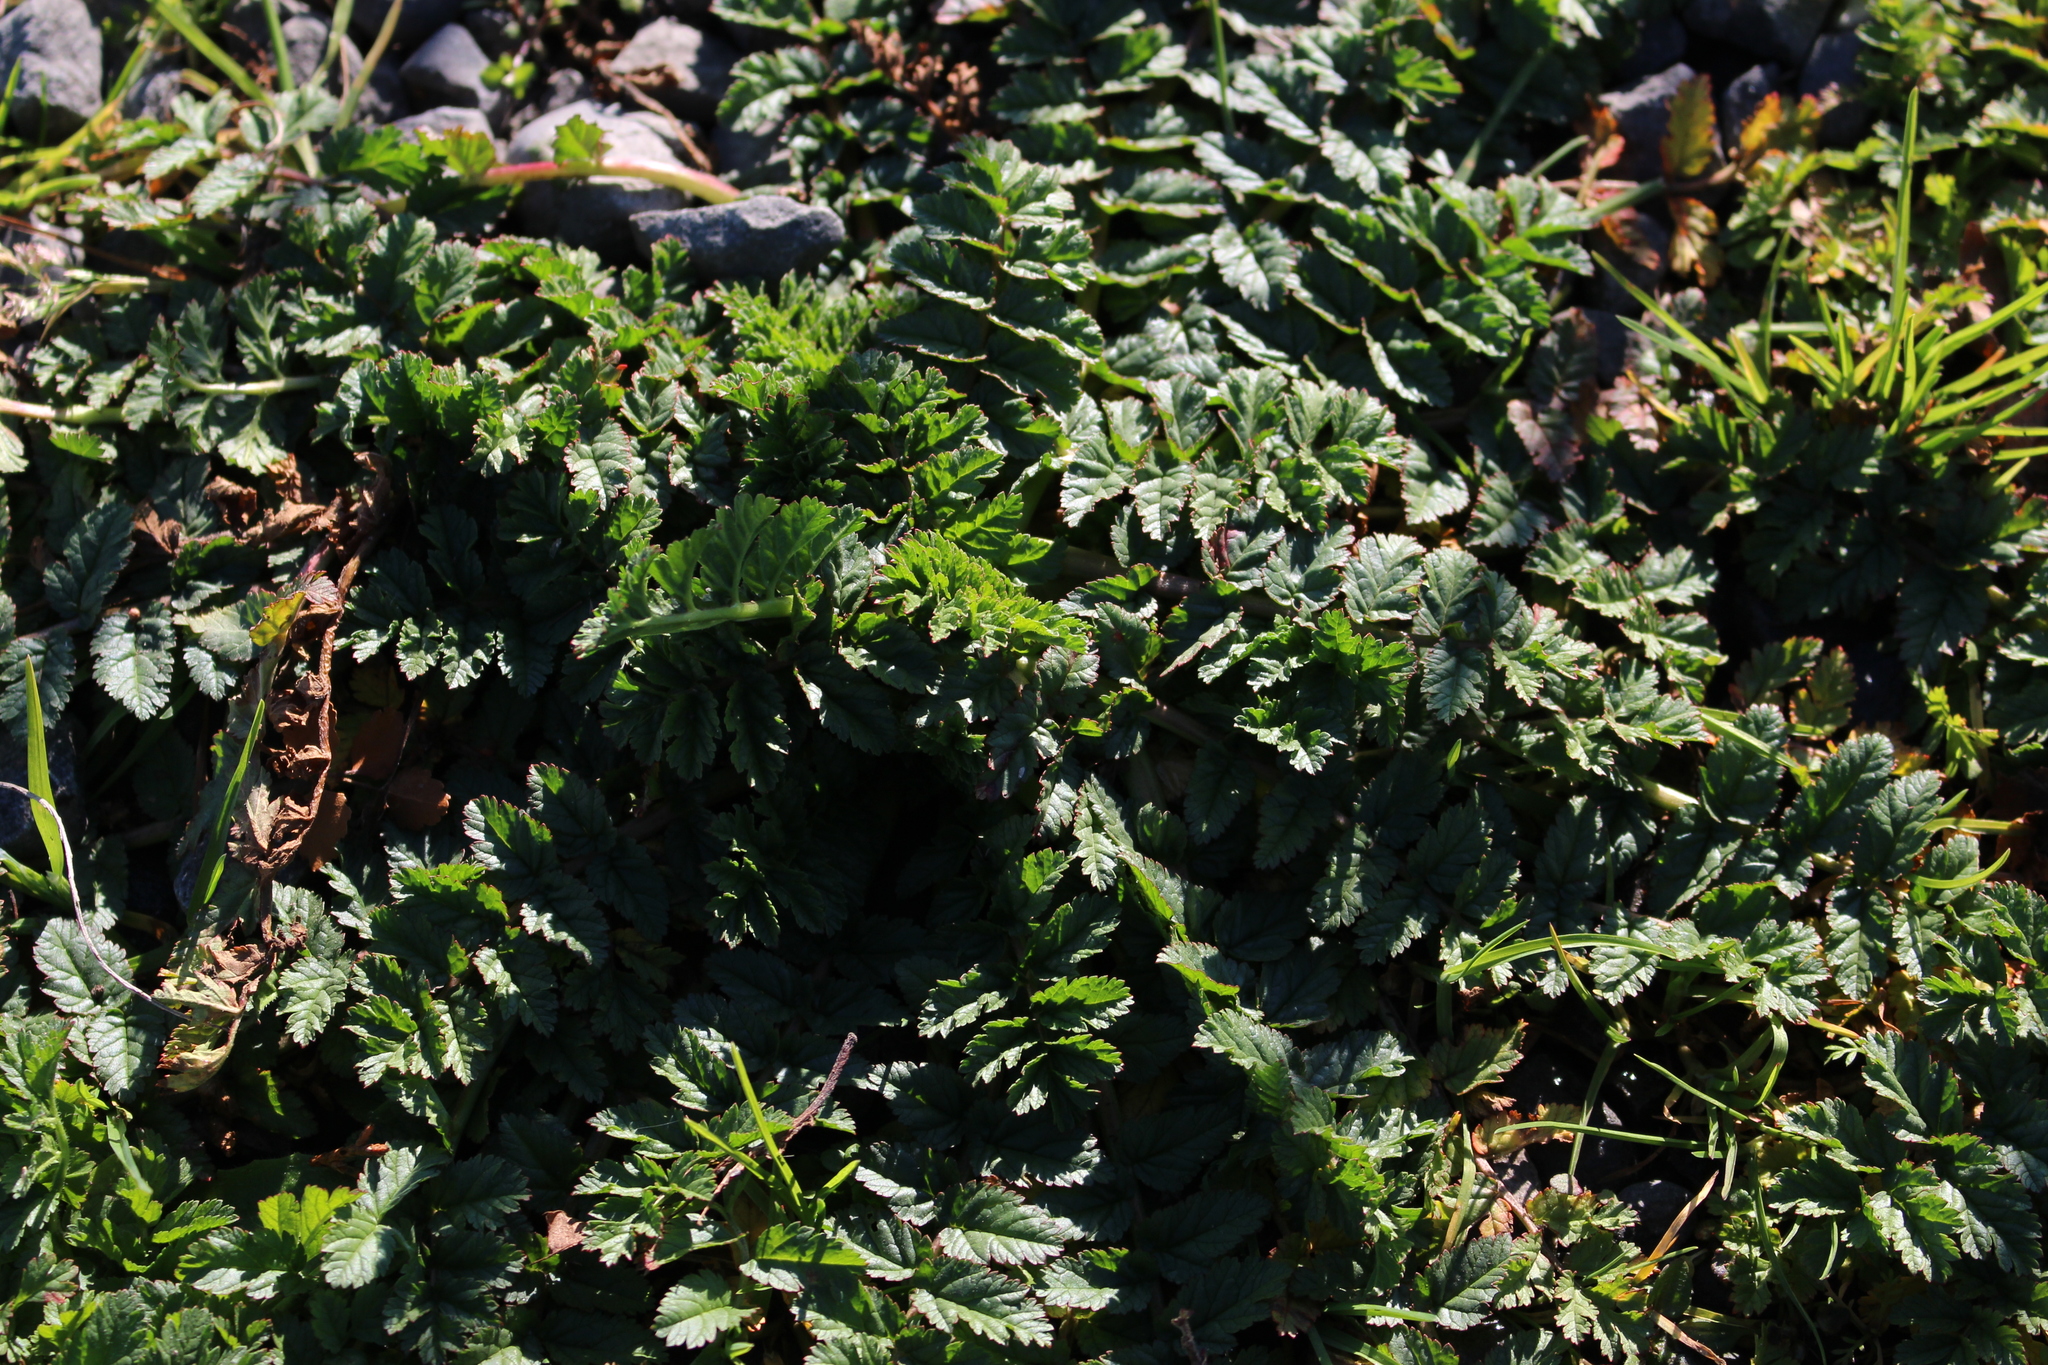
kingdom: Plantae
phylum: Tracheophyta
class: Magnoliopsida
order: Geraniales
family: Geraniaceae
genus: Erodium
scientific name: Erodium moschatum
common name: Musk stork's-bill
